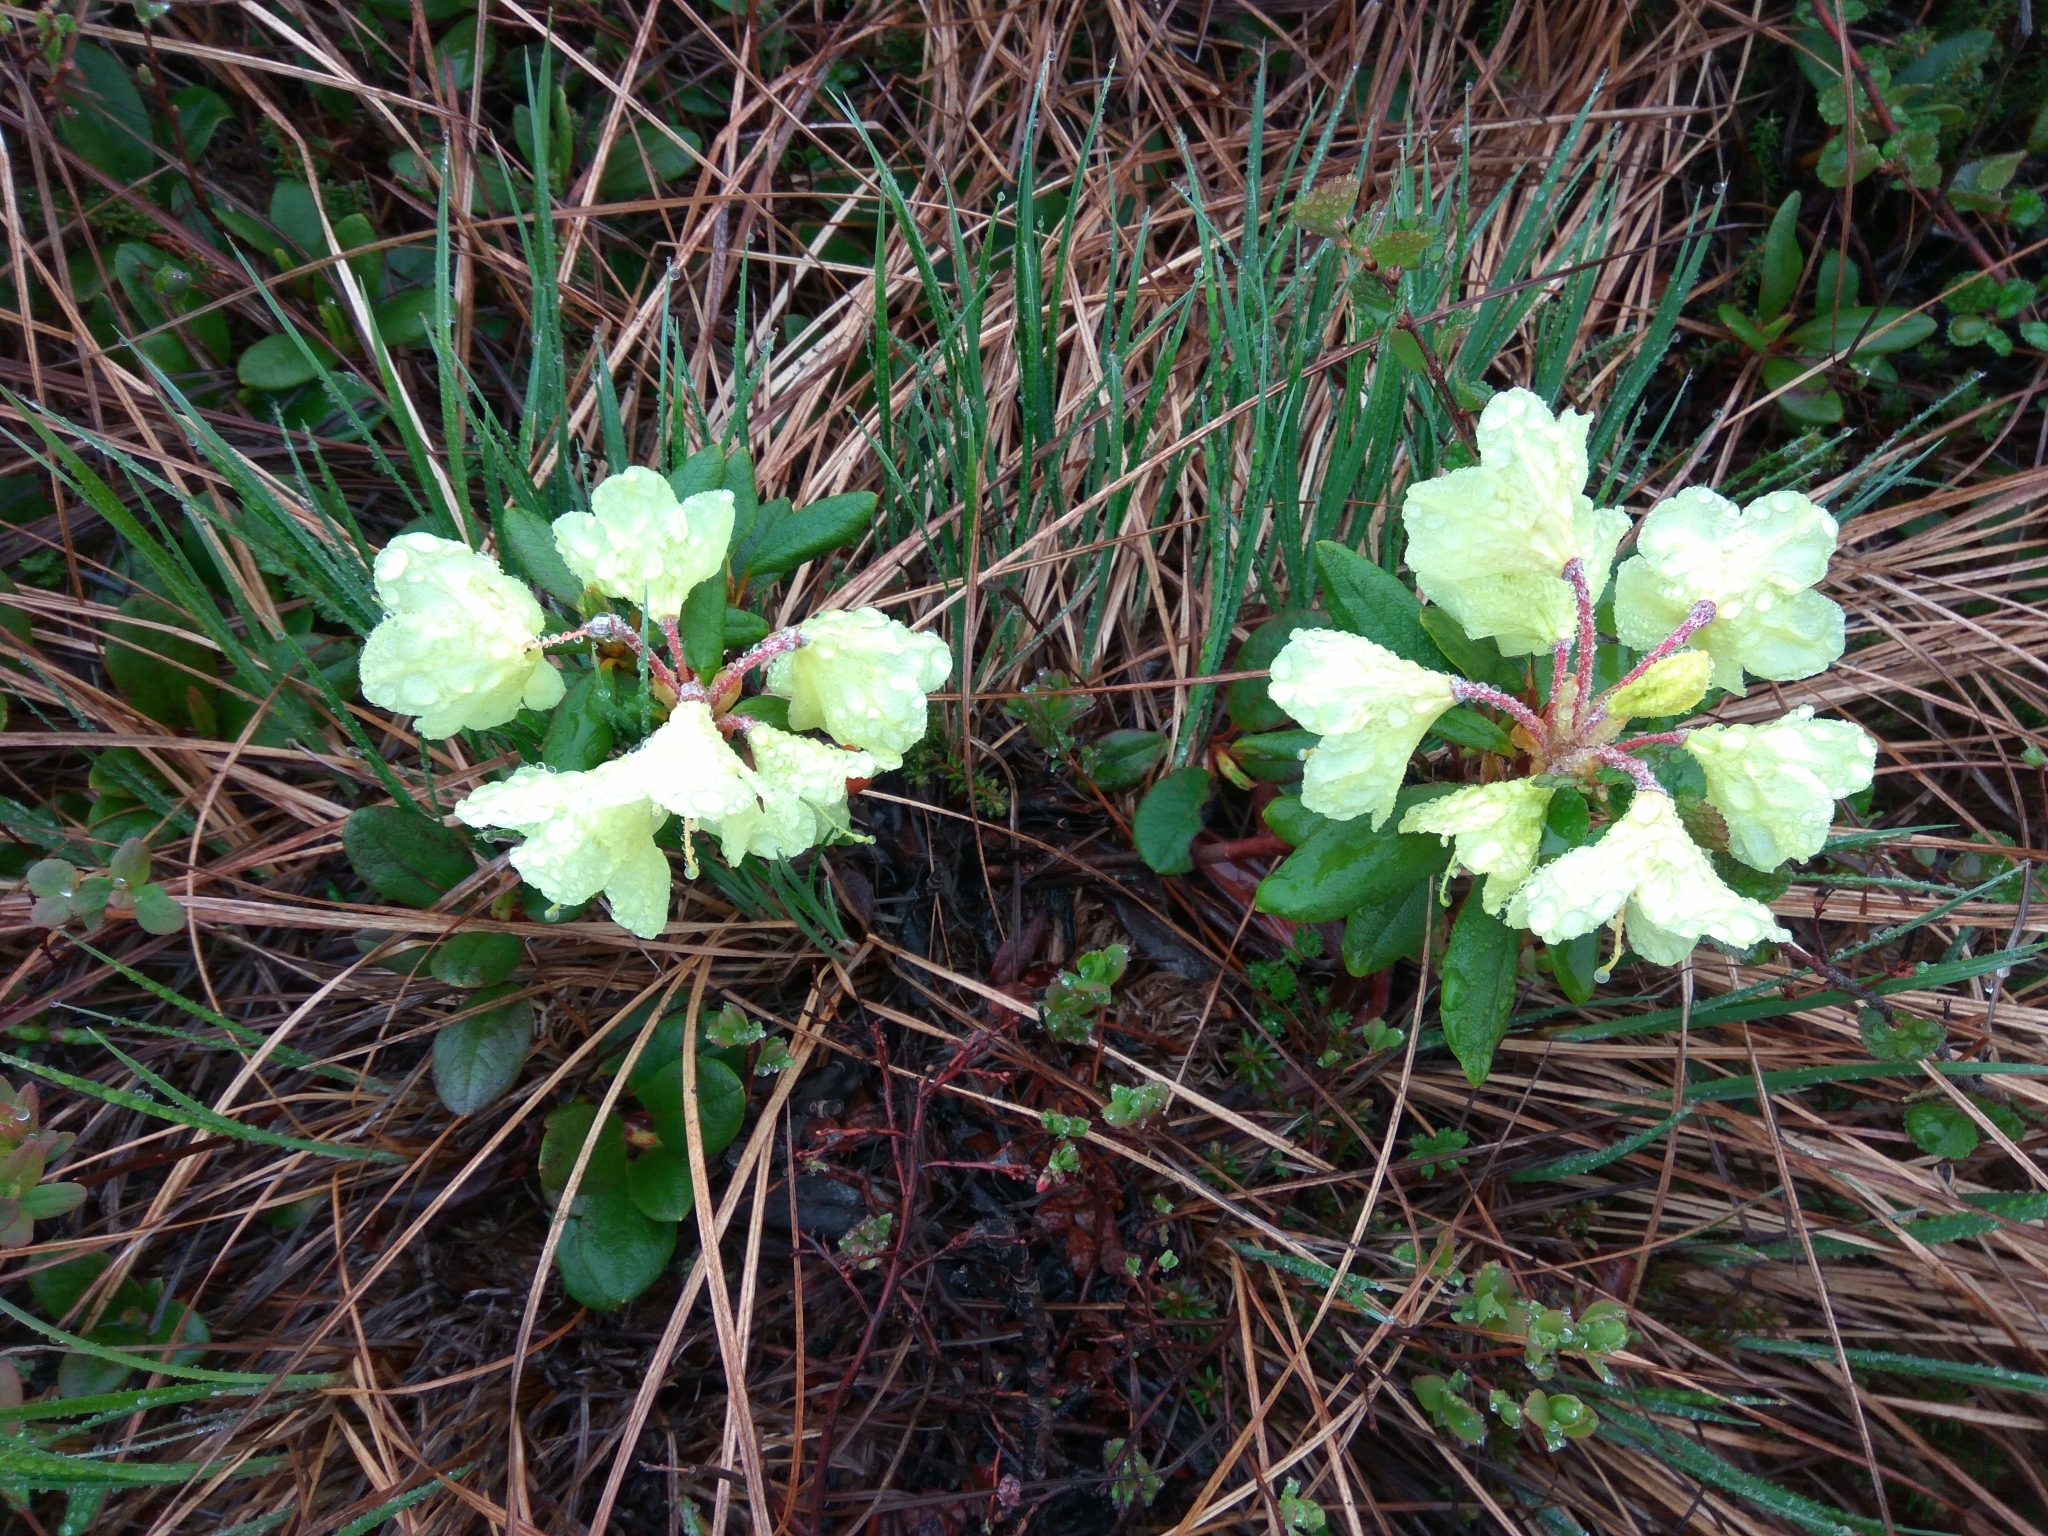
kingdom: Plantae
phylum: Tracheophyta
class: Magnoliopsida
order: Ericales
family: Ericaceae
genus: Rhododendron
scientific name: Rhododendron aureum
